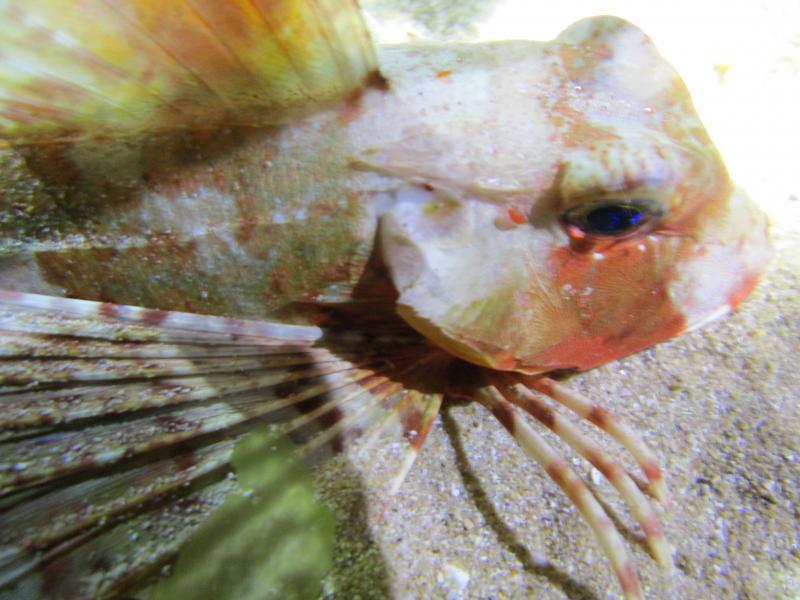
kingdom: Animalia
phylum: Chordata
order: Scorpaeniformes
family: Triglidae
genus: Chelidonichthys
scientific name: Chelidonichthys lastoviza
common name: Streaked gurnard
